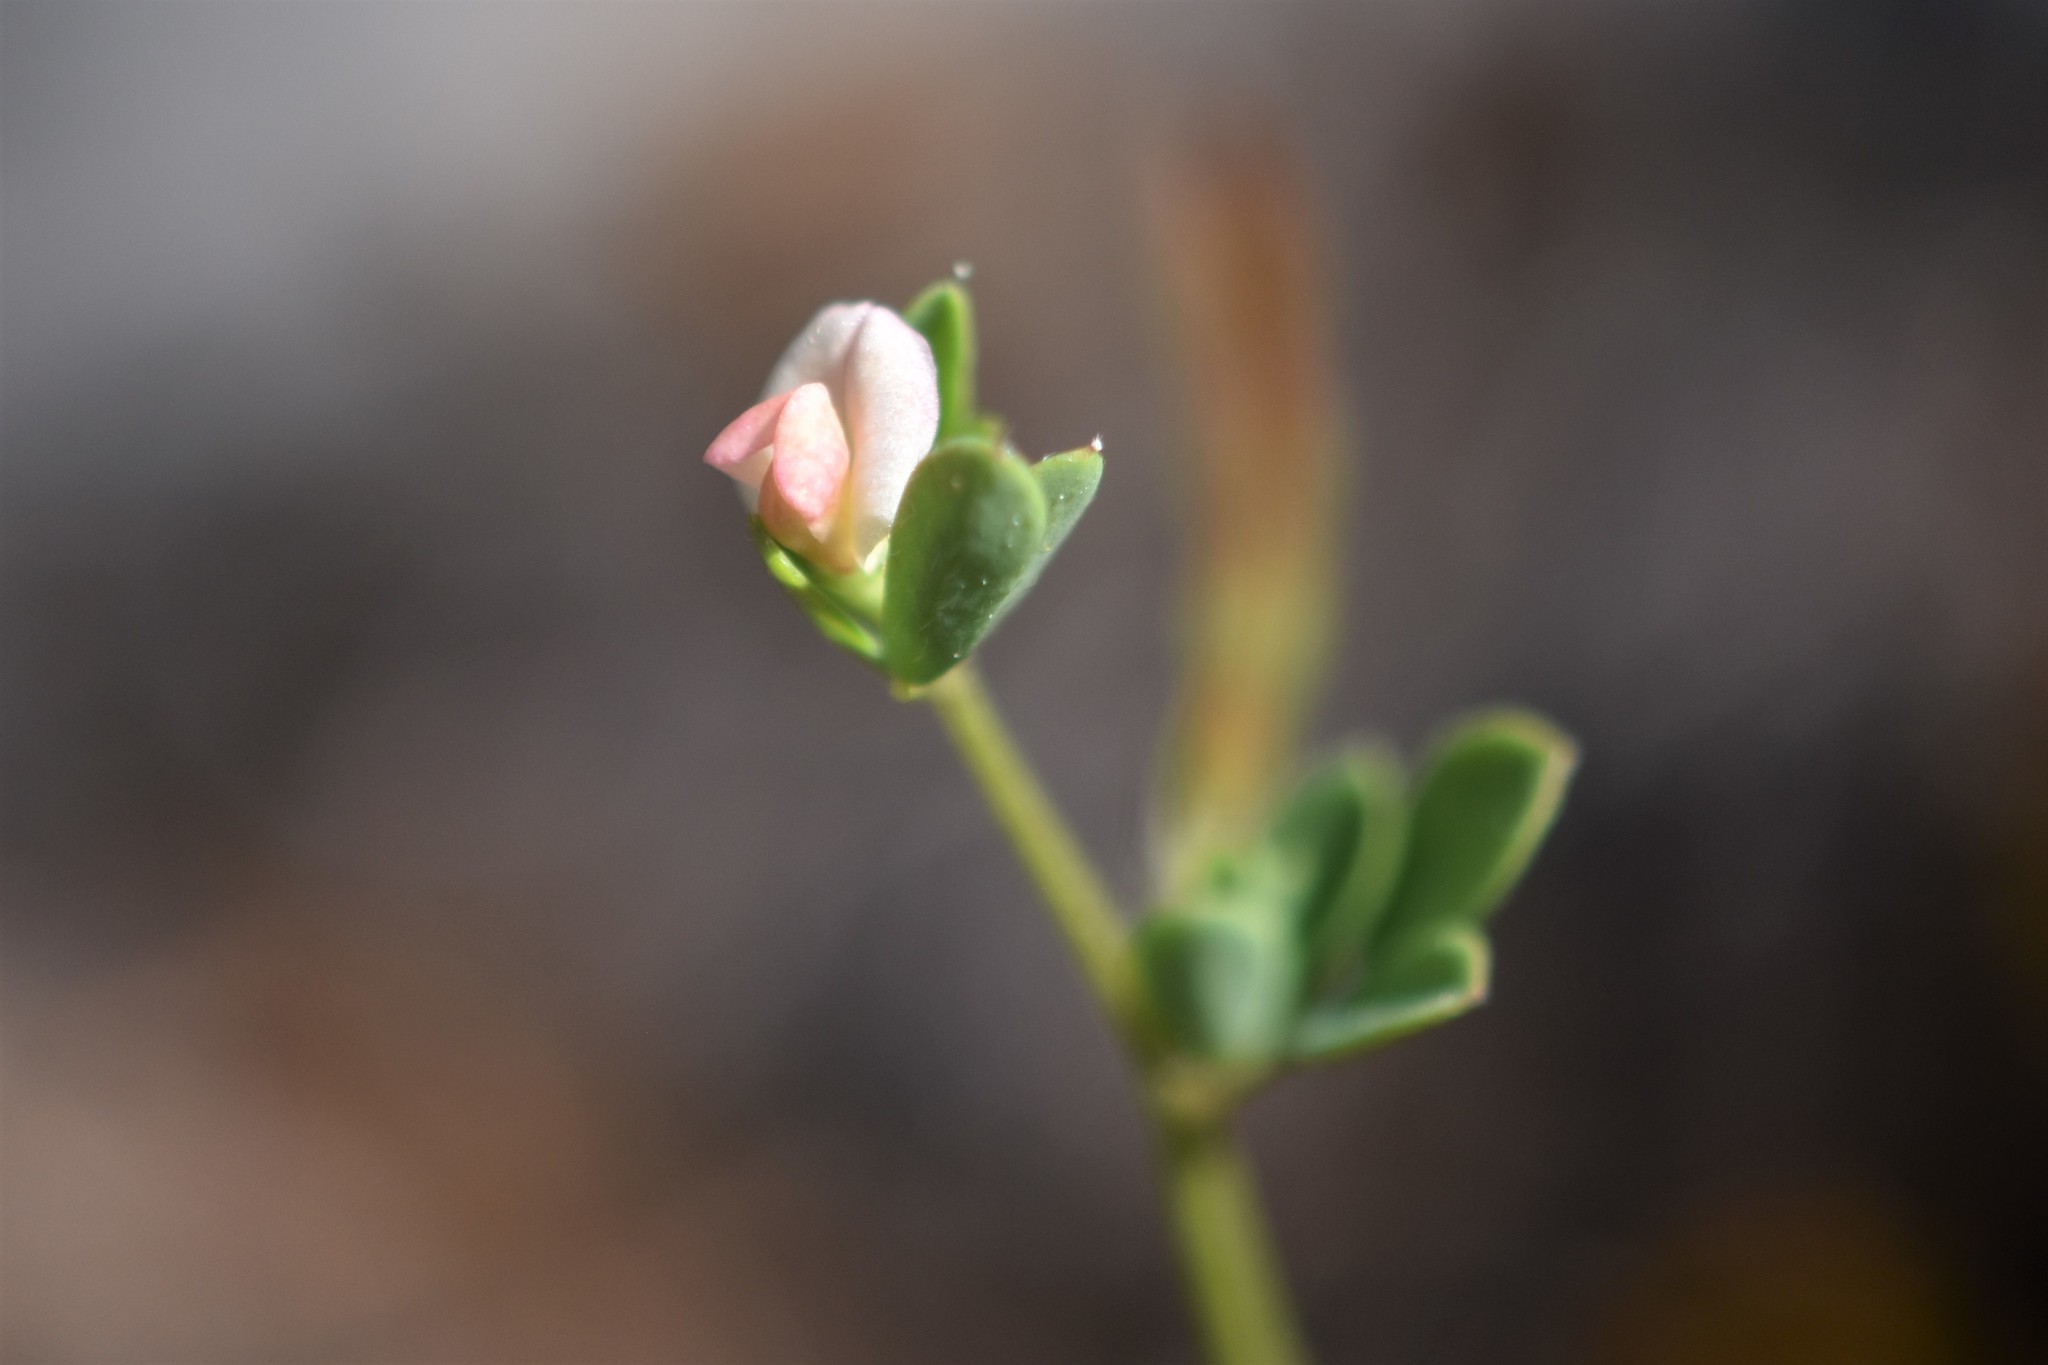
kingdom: Plantae
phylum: Tracheophyta
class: Magnoliopsida
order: Fabales
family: Fabaceae
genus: Acmispon
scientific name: Acmispon parviflorus
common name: Desert deer-vetch
